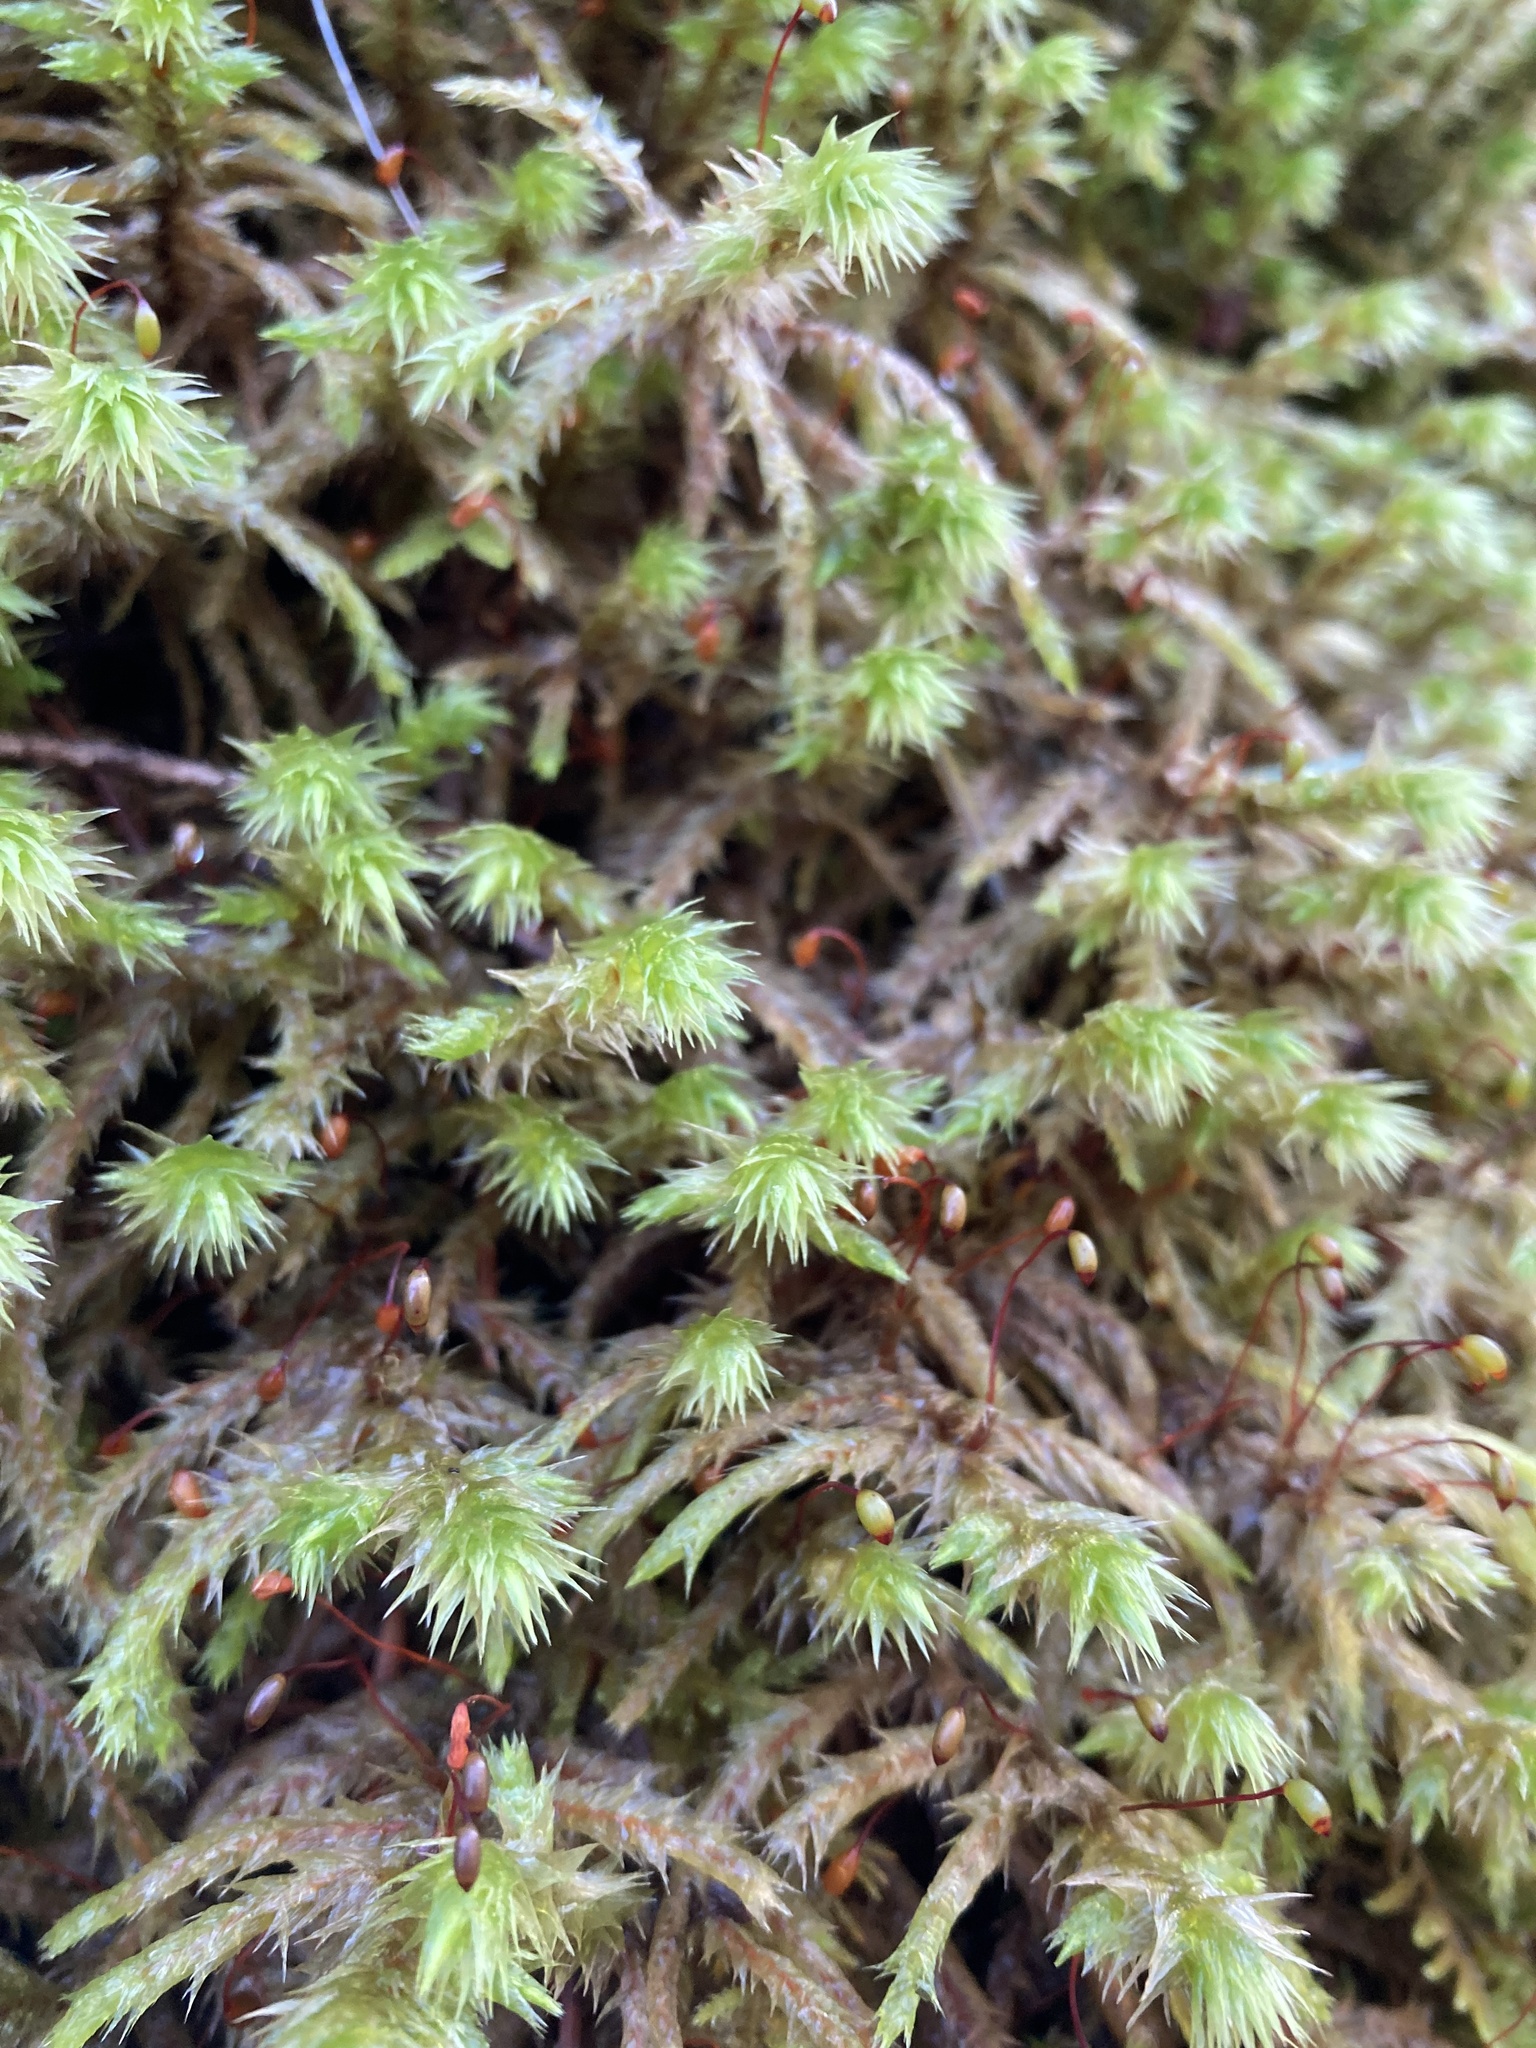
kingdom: Plantae
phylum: Bryophyta
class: Bryopsida
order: Hypnales
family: Hylocomiaceae
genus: Hylocomiadelphus
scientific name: Hylocomiadelphus triquetrus
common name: Rough goose neck moss
